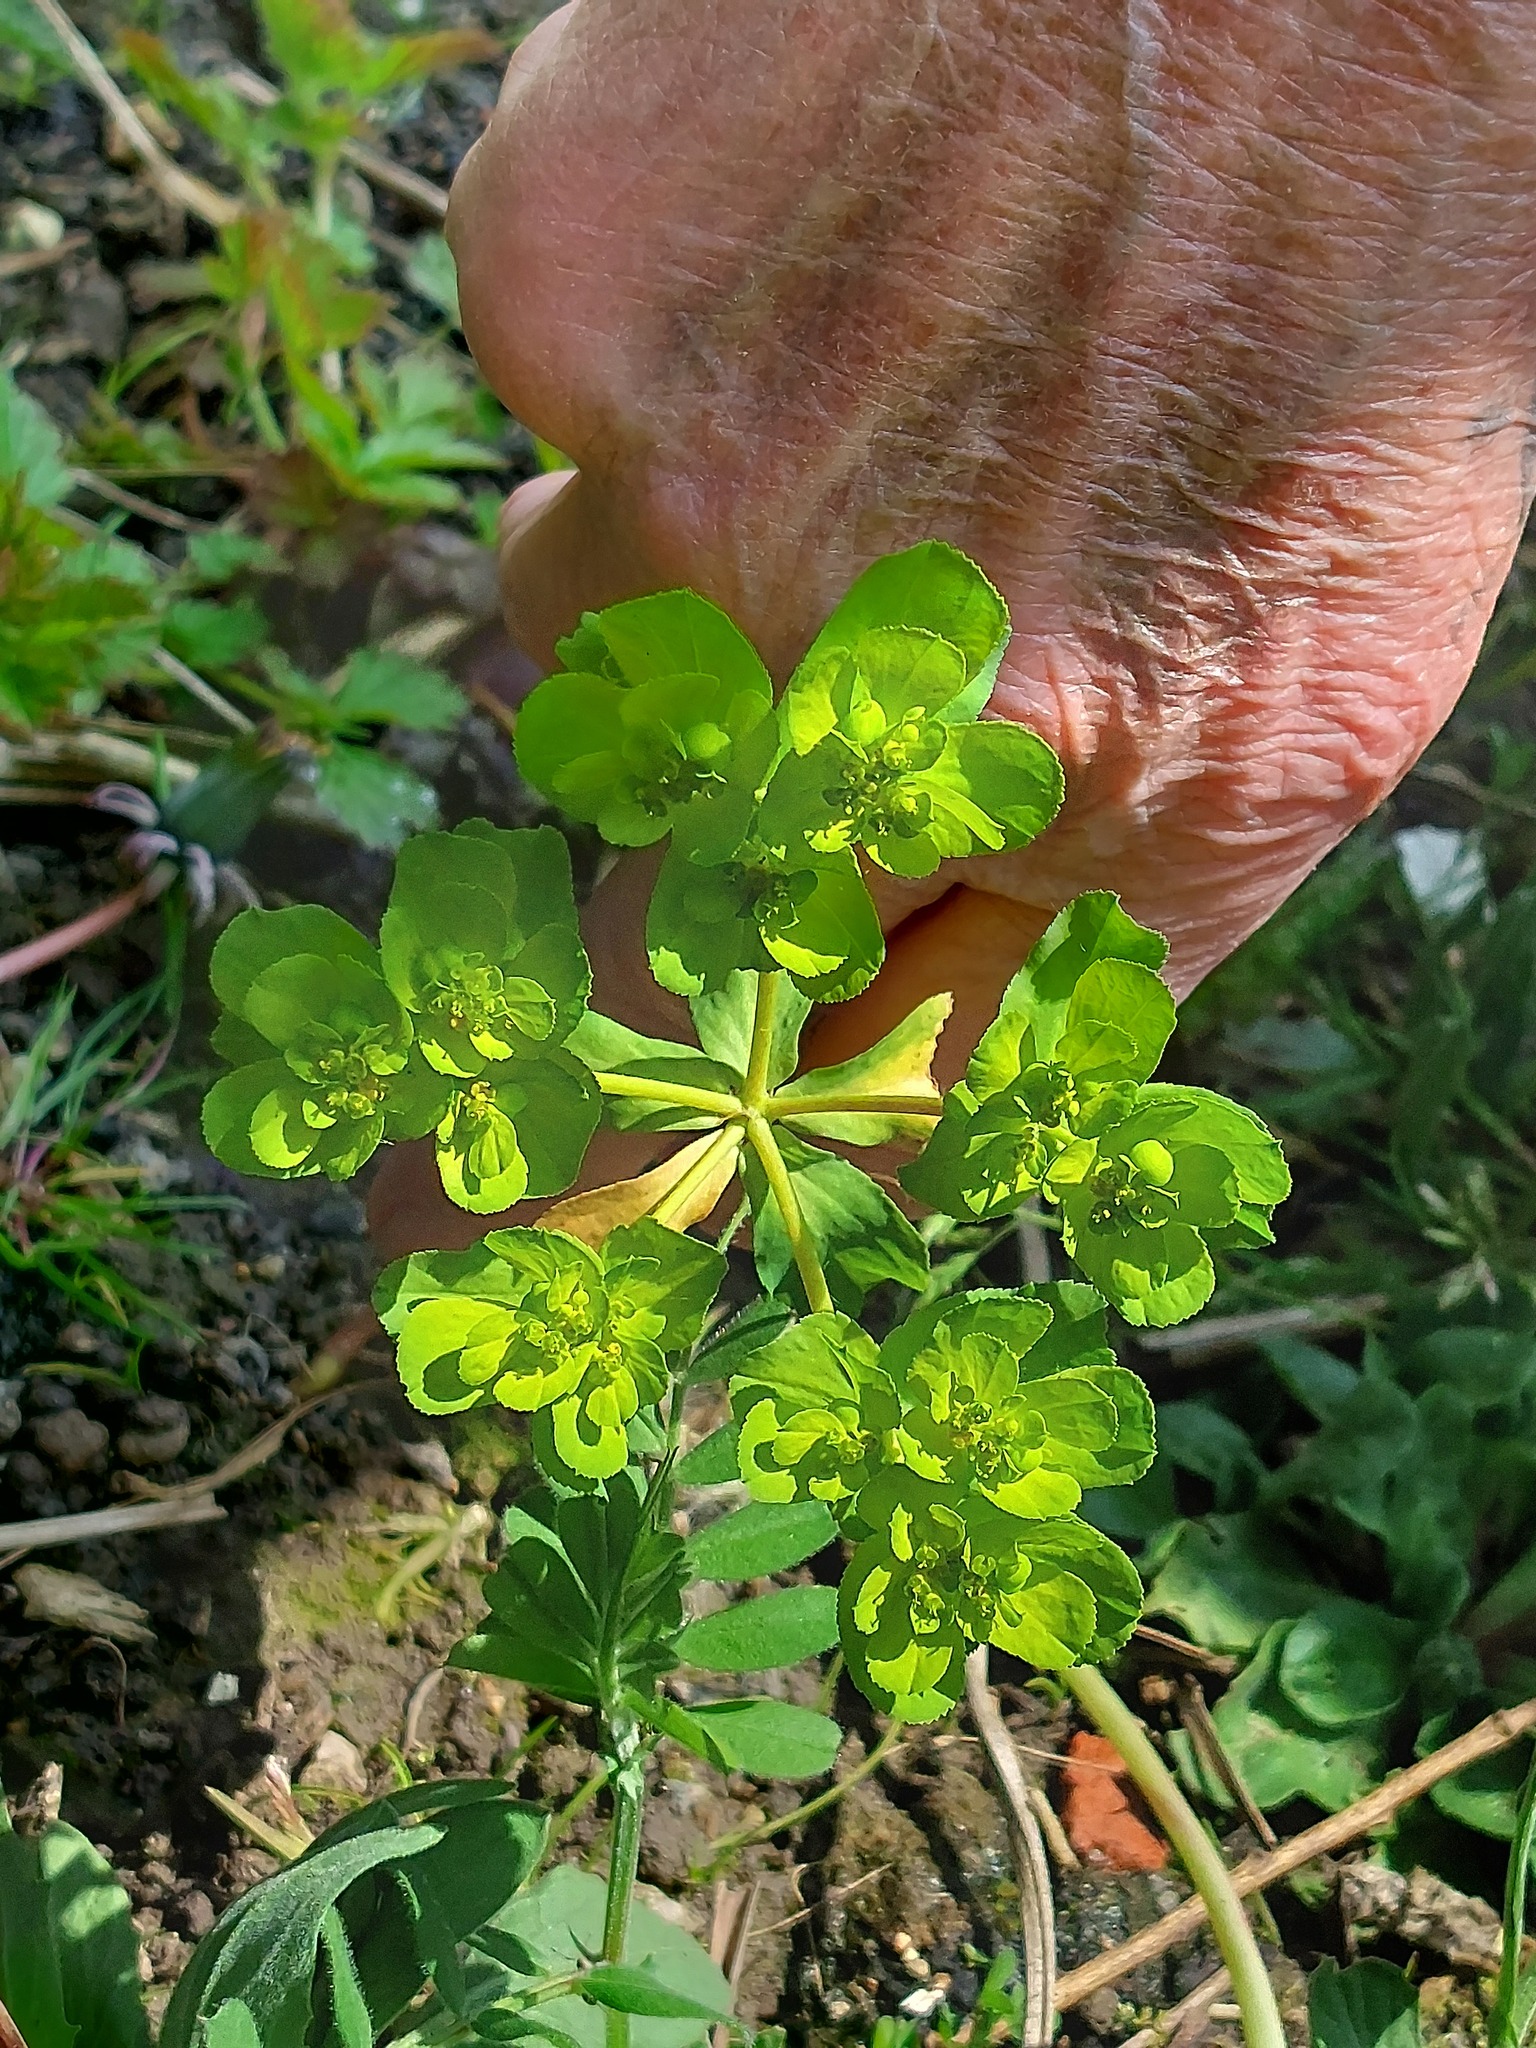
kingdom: Plantae
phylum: Tracheophyta
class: Magnoliopsida
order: Malpighiales
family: Euphorbiaceae
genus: Euphorbia
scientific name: Euphorbia helioscopia
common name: Sun spurge
